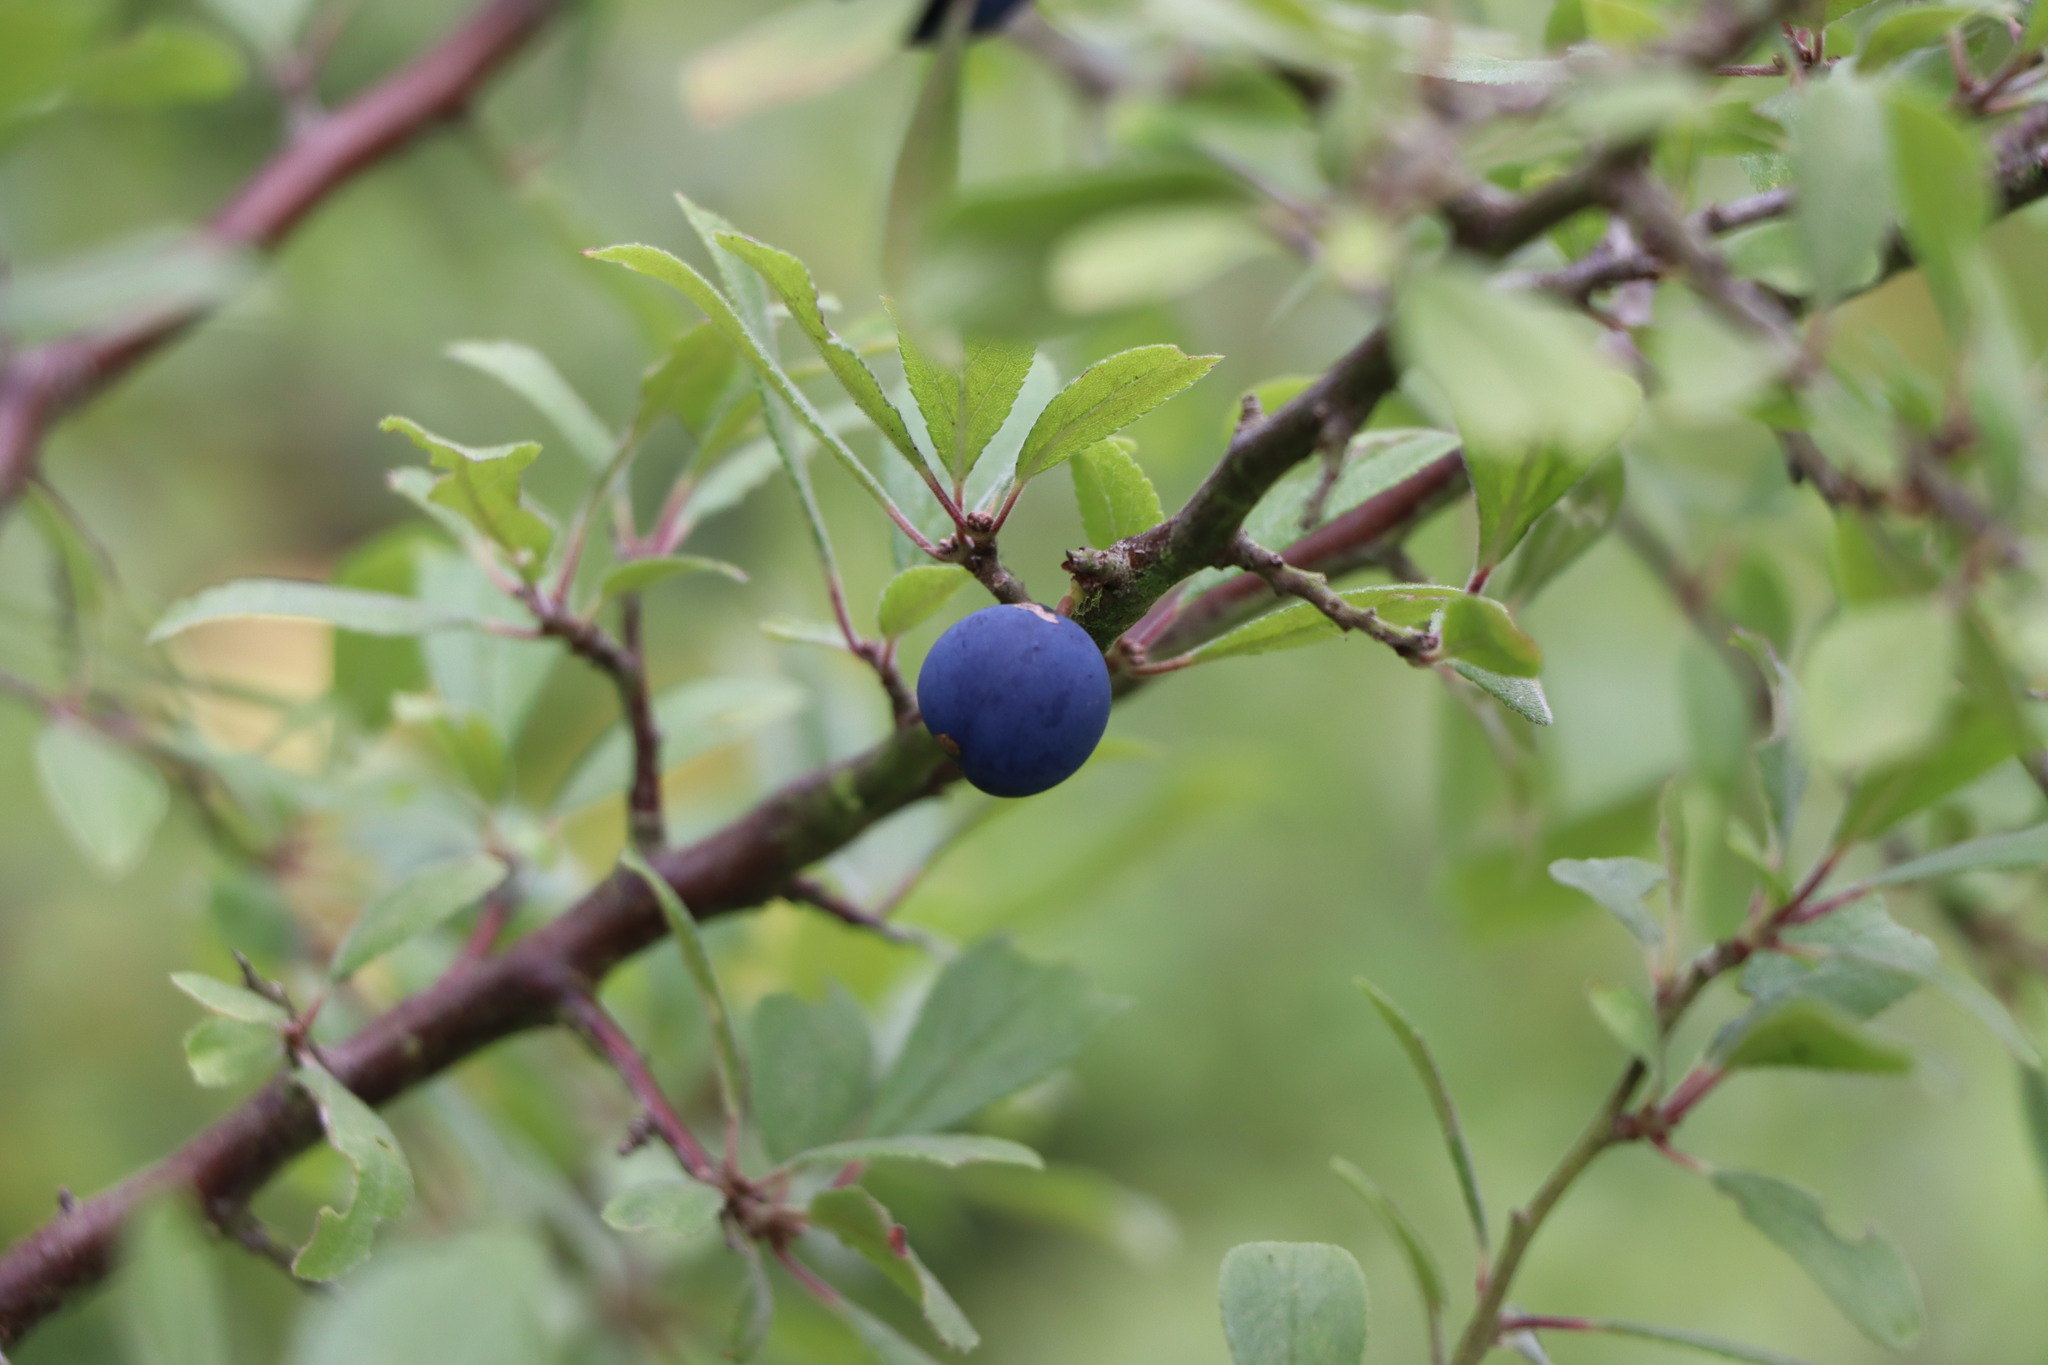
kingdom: Plantae
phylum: Tracheophyta
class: Magnoliopsida
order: Rosales
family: Rosaceae
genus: Prunus
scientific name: Prunus spinosa
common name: Blackthorn
